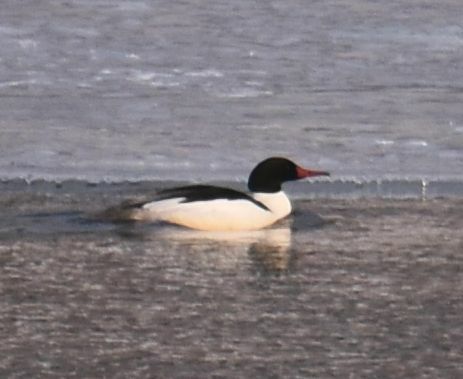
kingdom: Animalia
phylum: Chordata
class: Aves
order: Anseriformes
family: Anatidae
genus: Mergus
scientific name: Mergus merganser
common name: Common merganser
